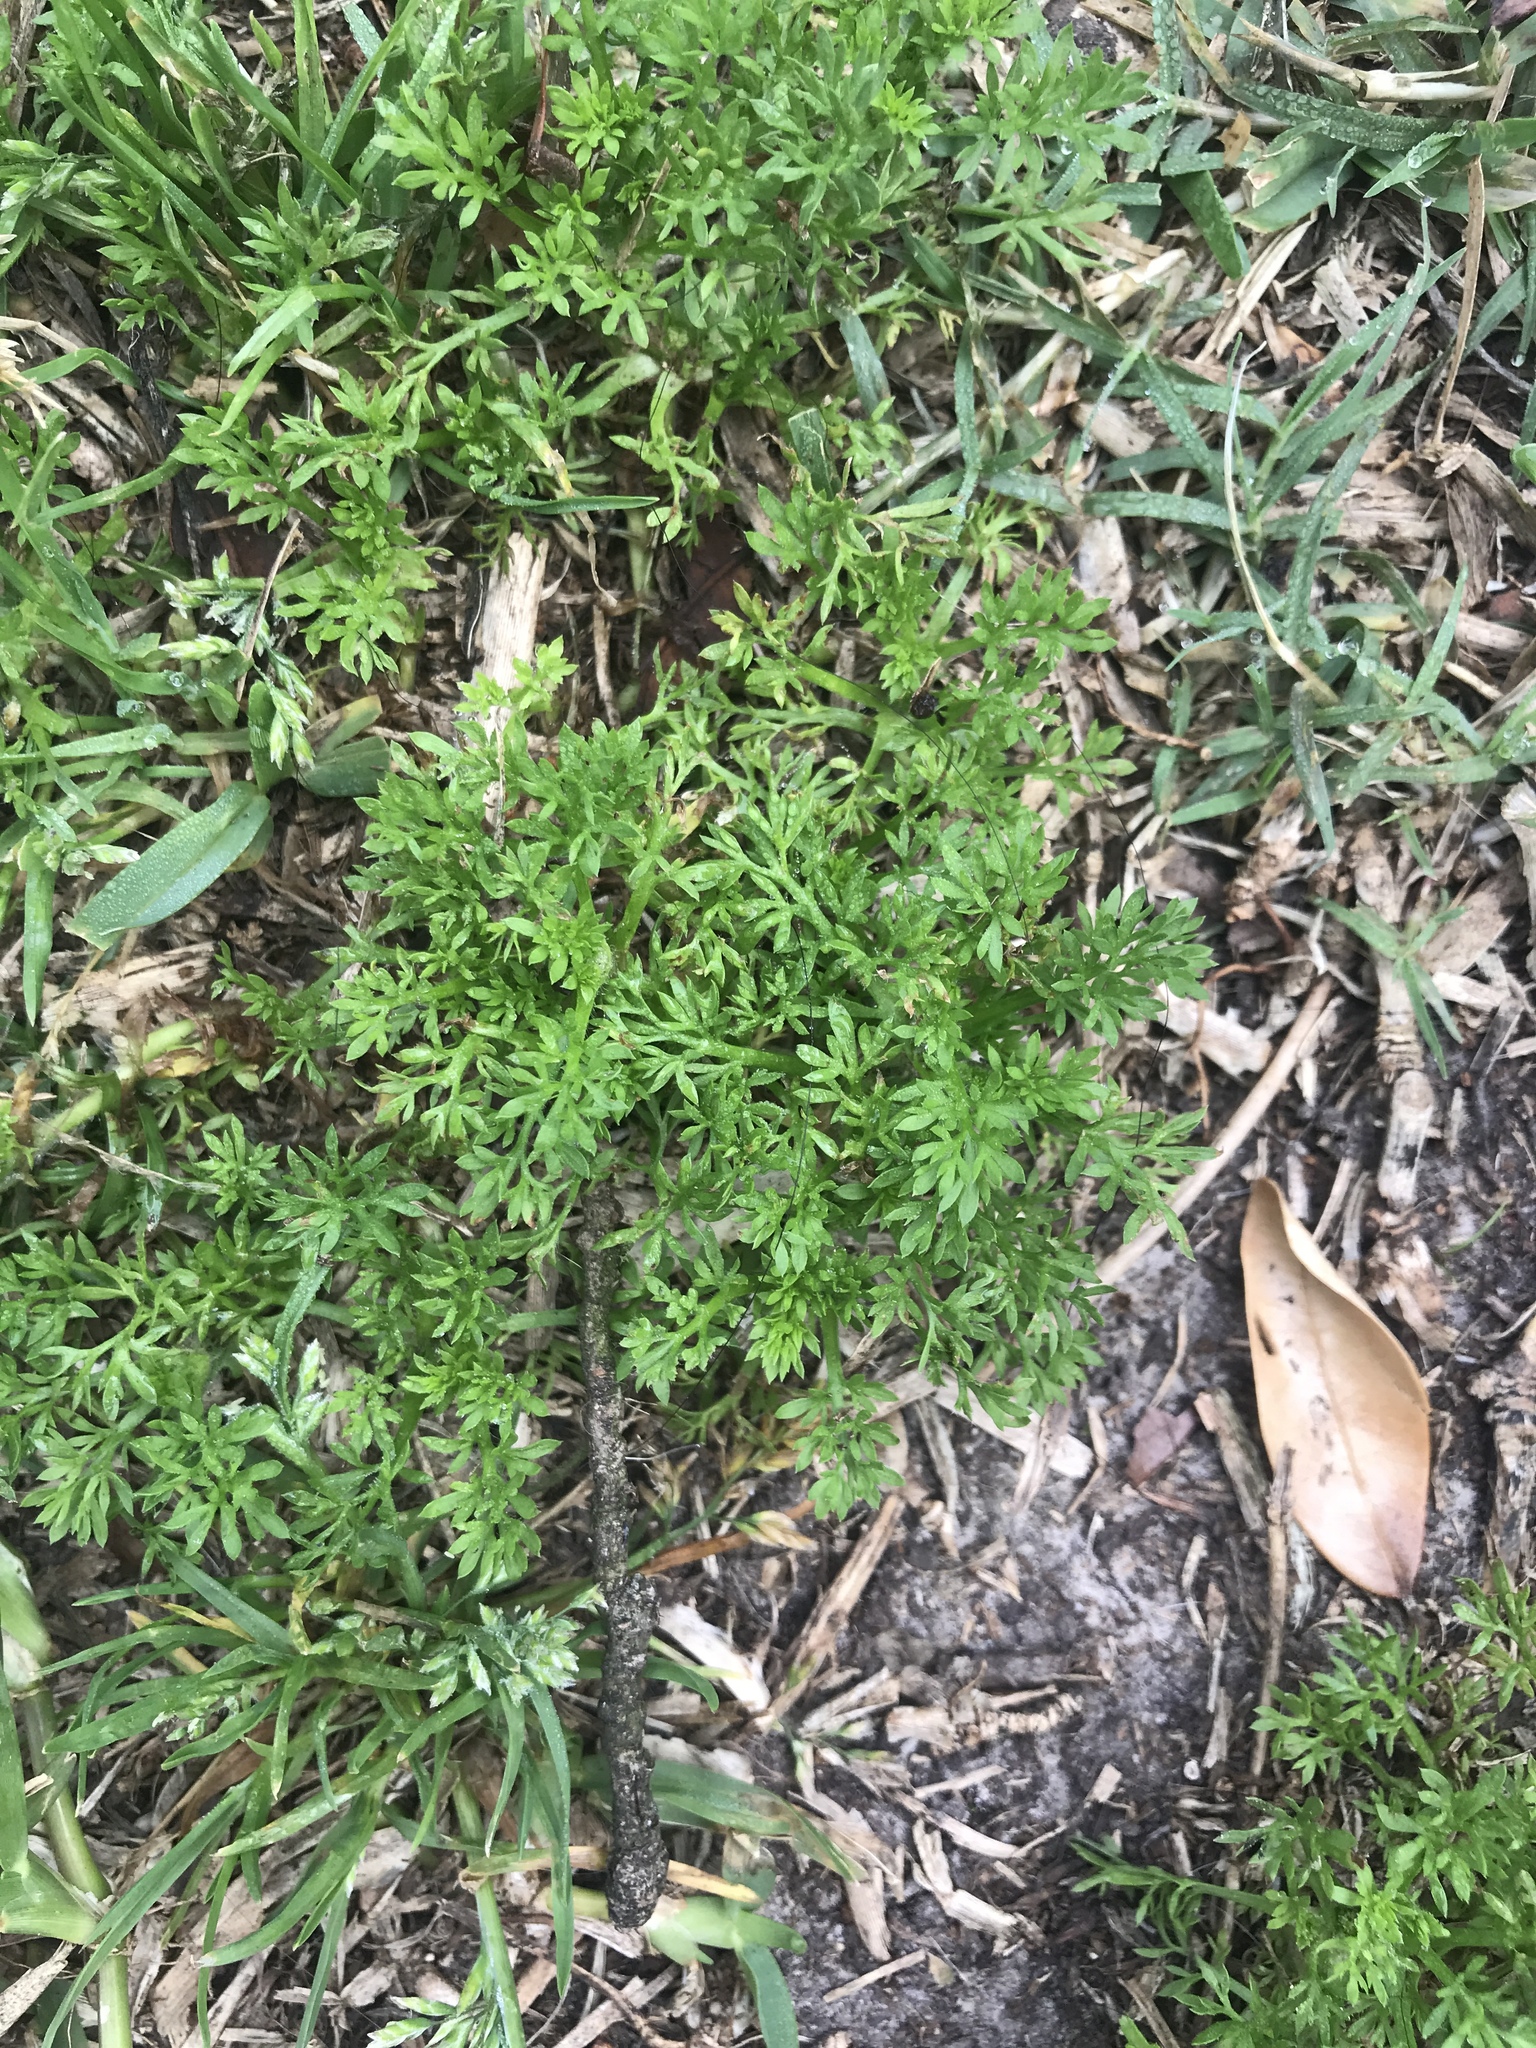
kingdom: Plantae
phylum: Tracheophyta
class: Magnoliopsida
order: Brassicales
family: Brassicaceae
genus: Lepidium
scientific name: Lepidium didymum
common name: Lesser swinecress
